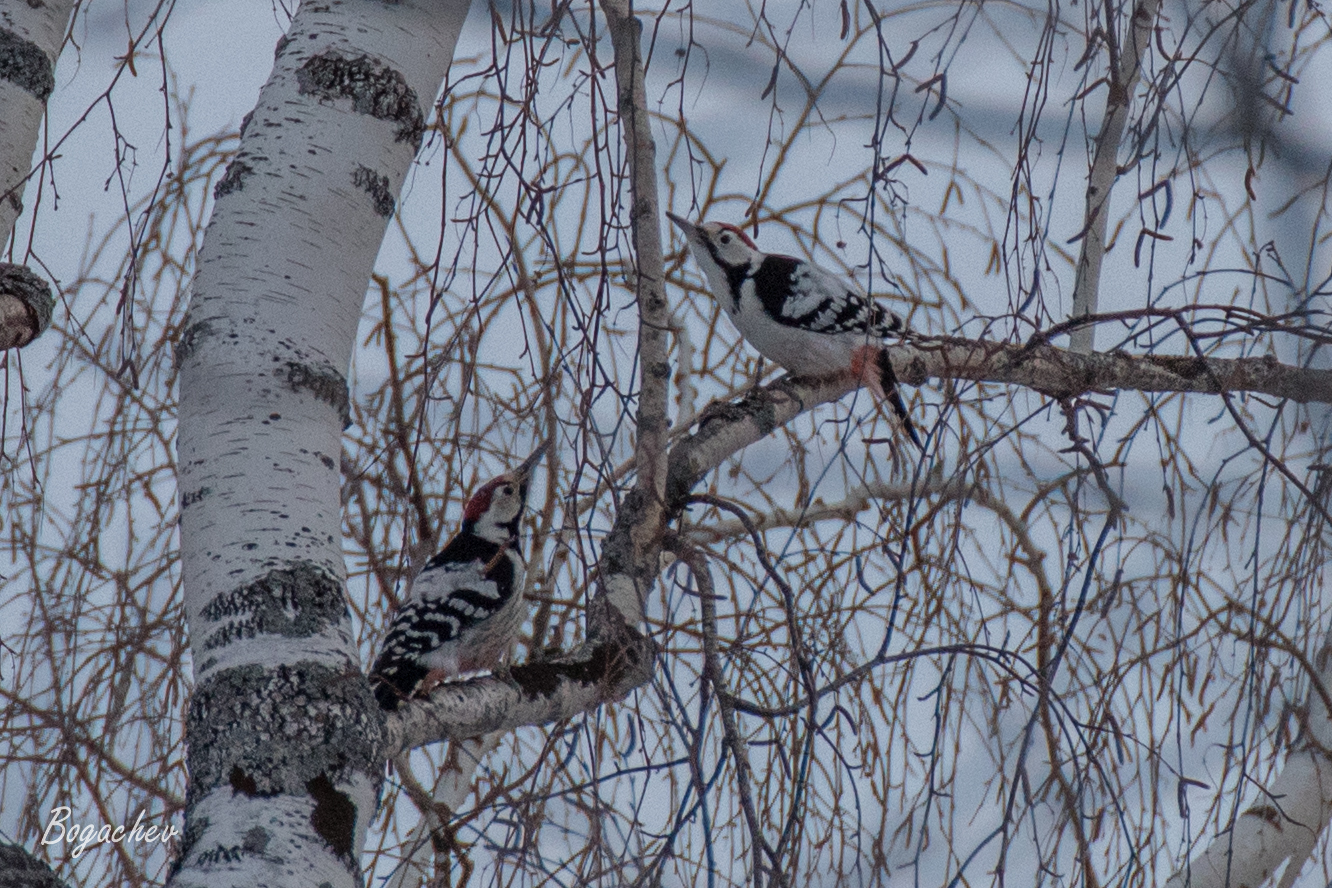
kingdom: Animalia
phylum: Chordata
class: Aves
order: Piciformes
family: Picidae
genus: Dendrocopos
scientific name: Dendrocopos leucotos
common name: White-backed woodpecker
